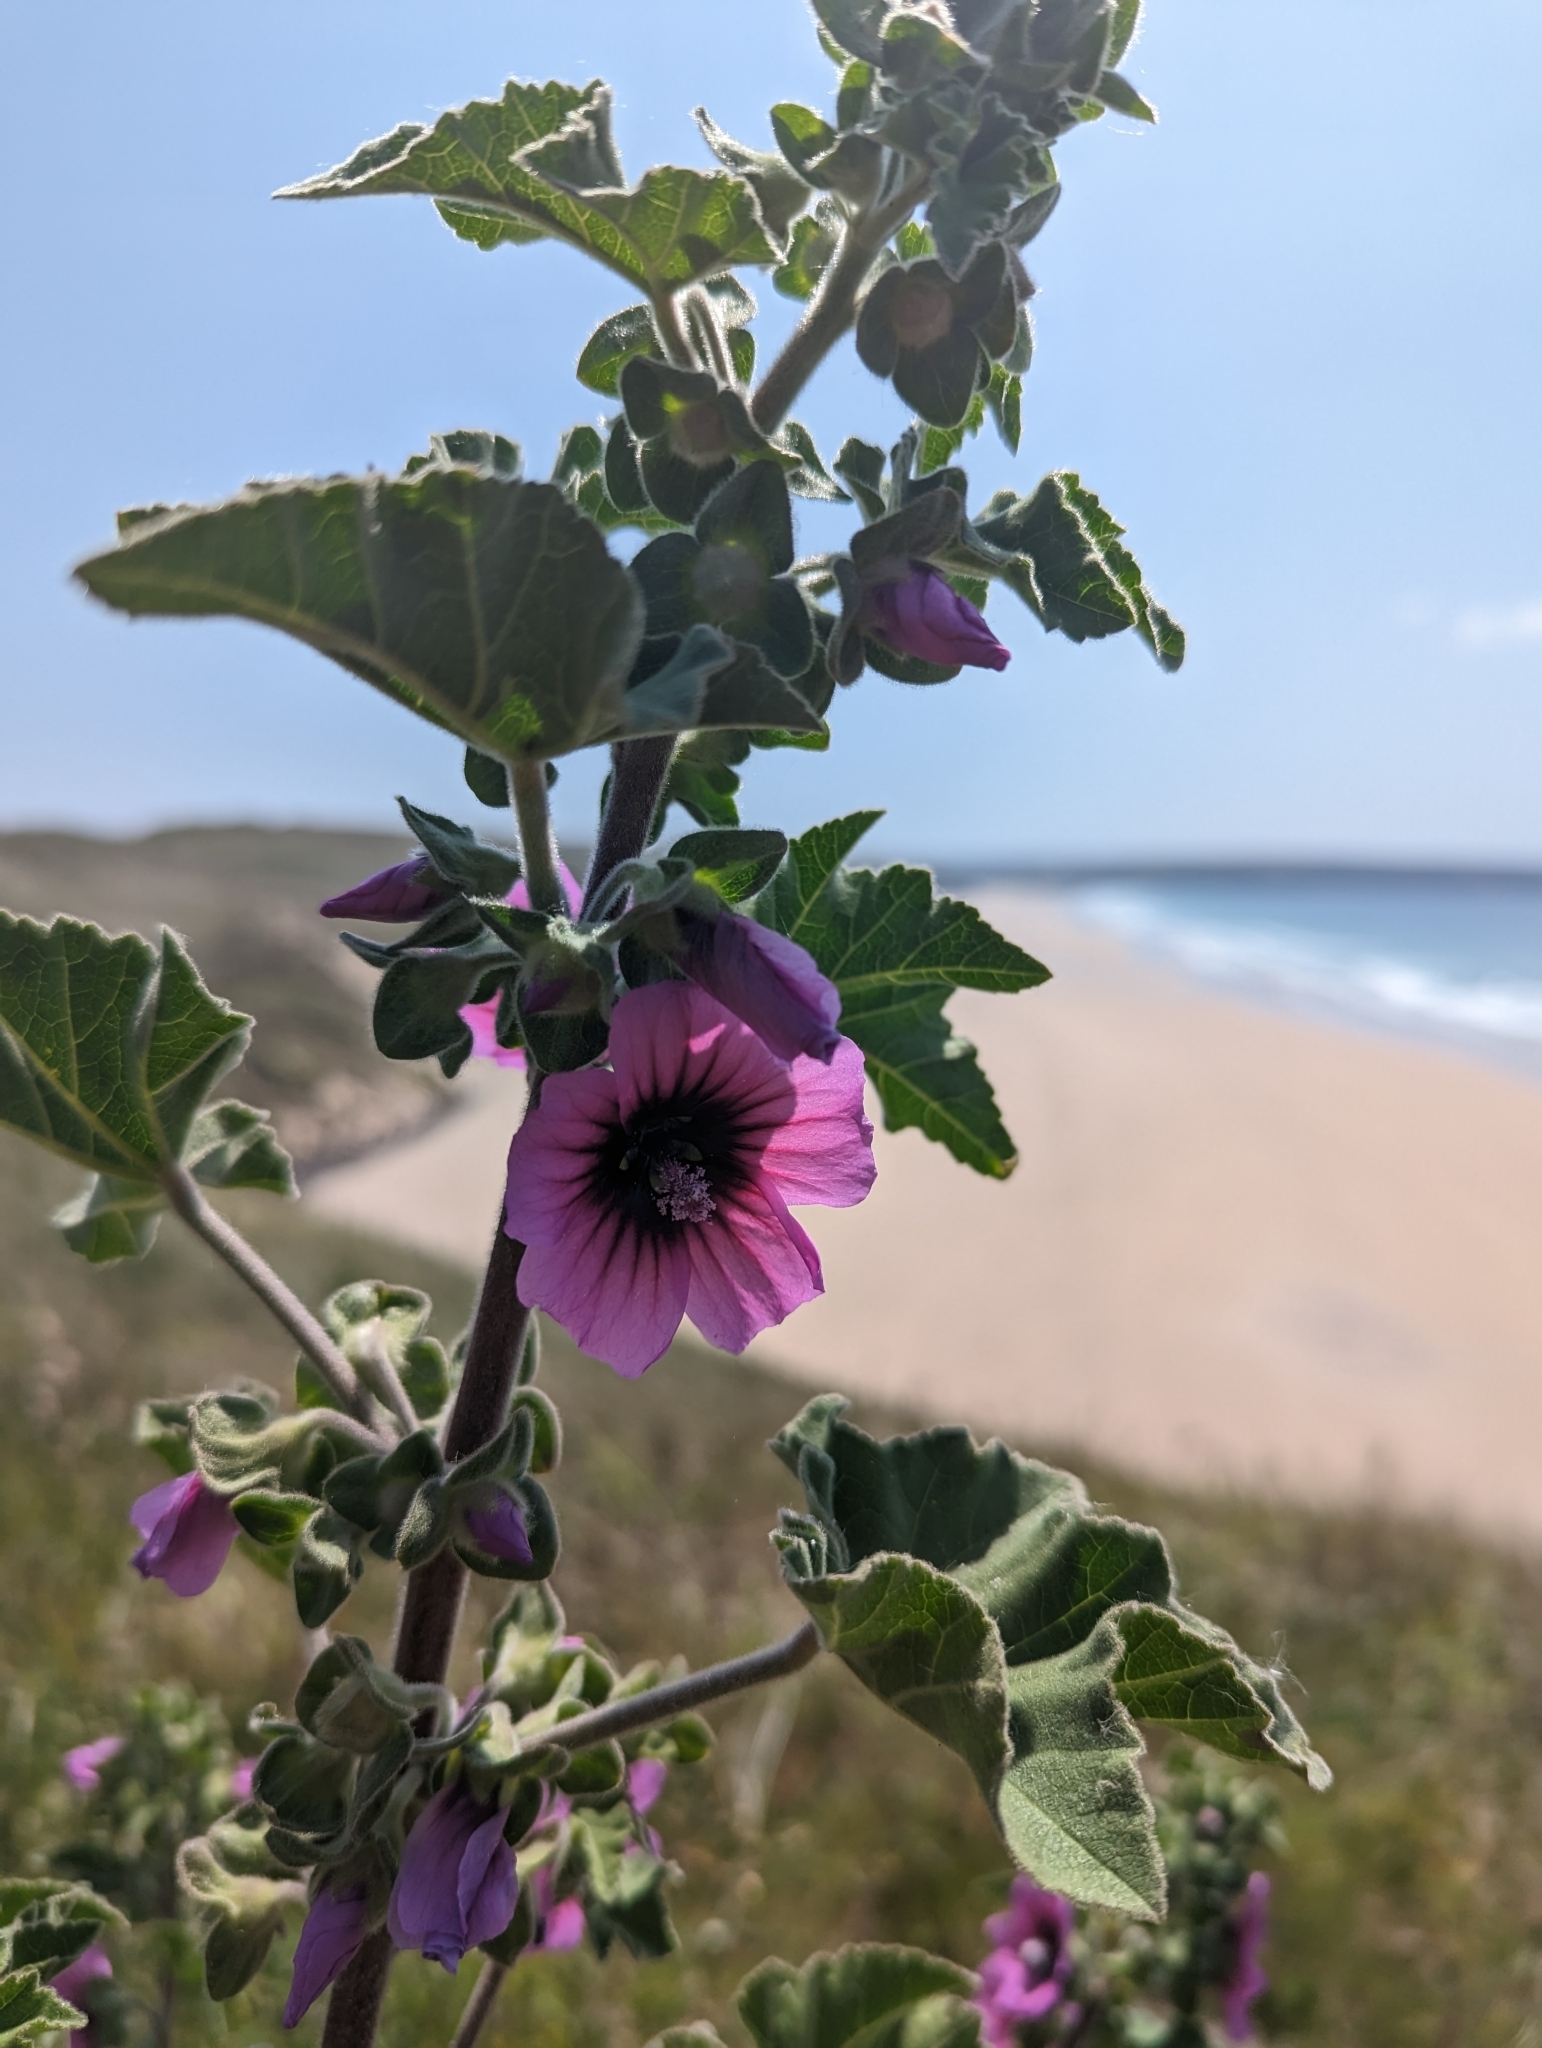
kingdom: Plantae
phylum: Tracheophyta
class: Magnoliopsida
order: Malvales
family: Malvaceae
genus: Malva
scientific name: Malva arborea
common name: Tree mallow
